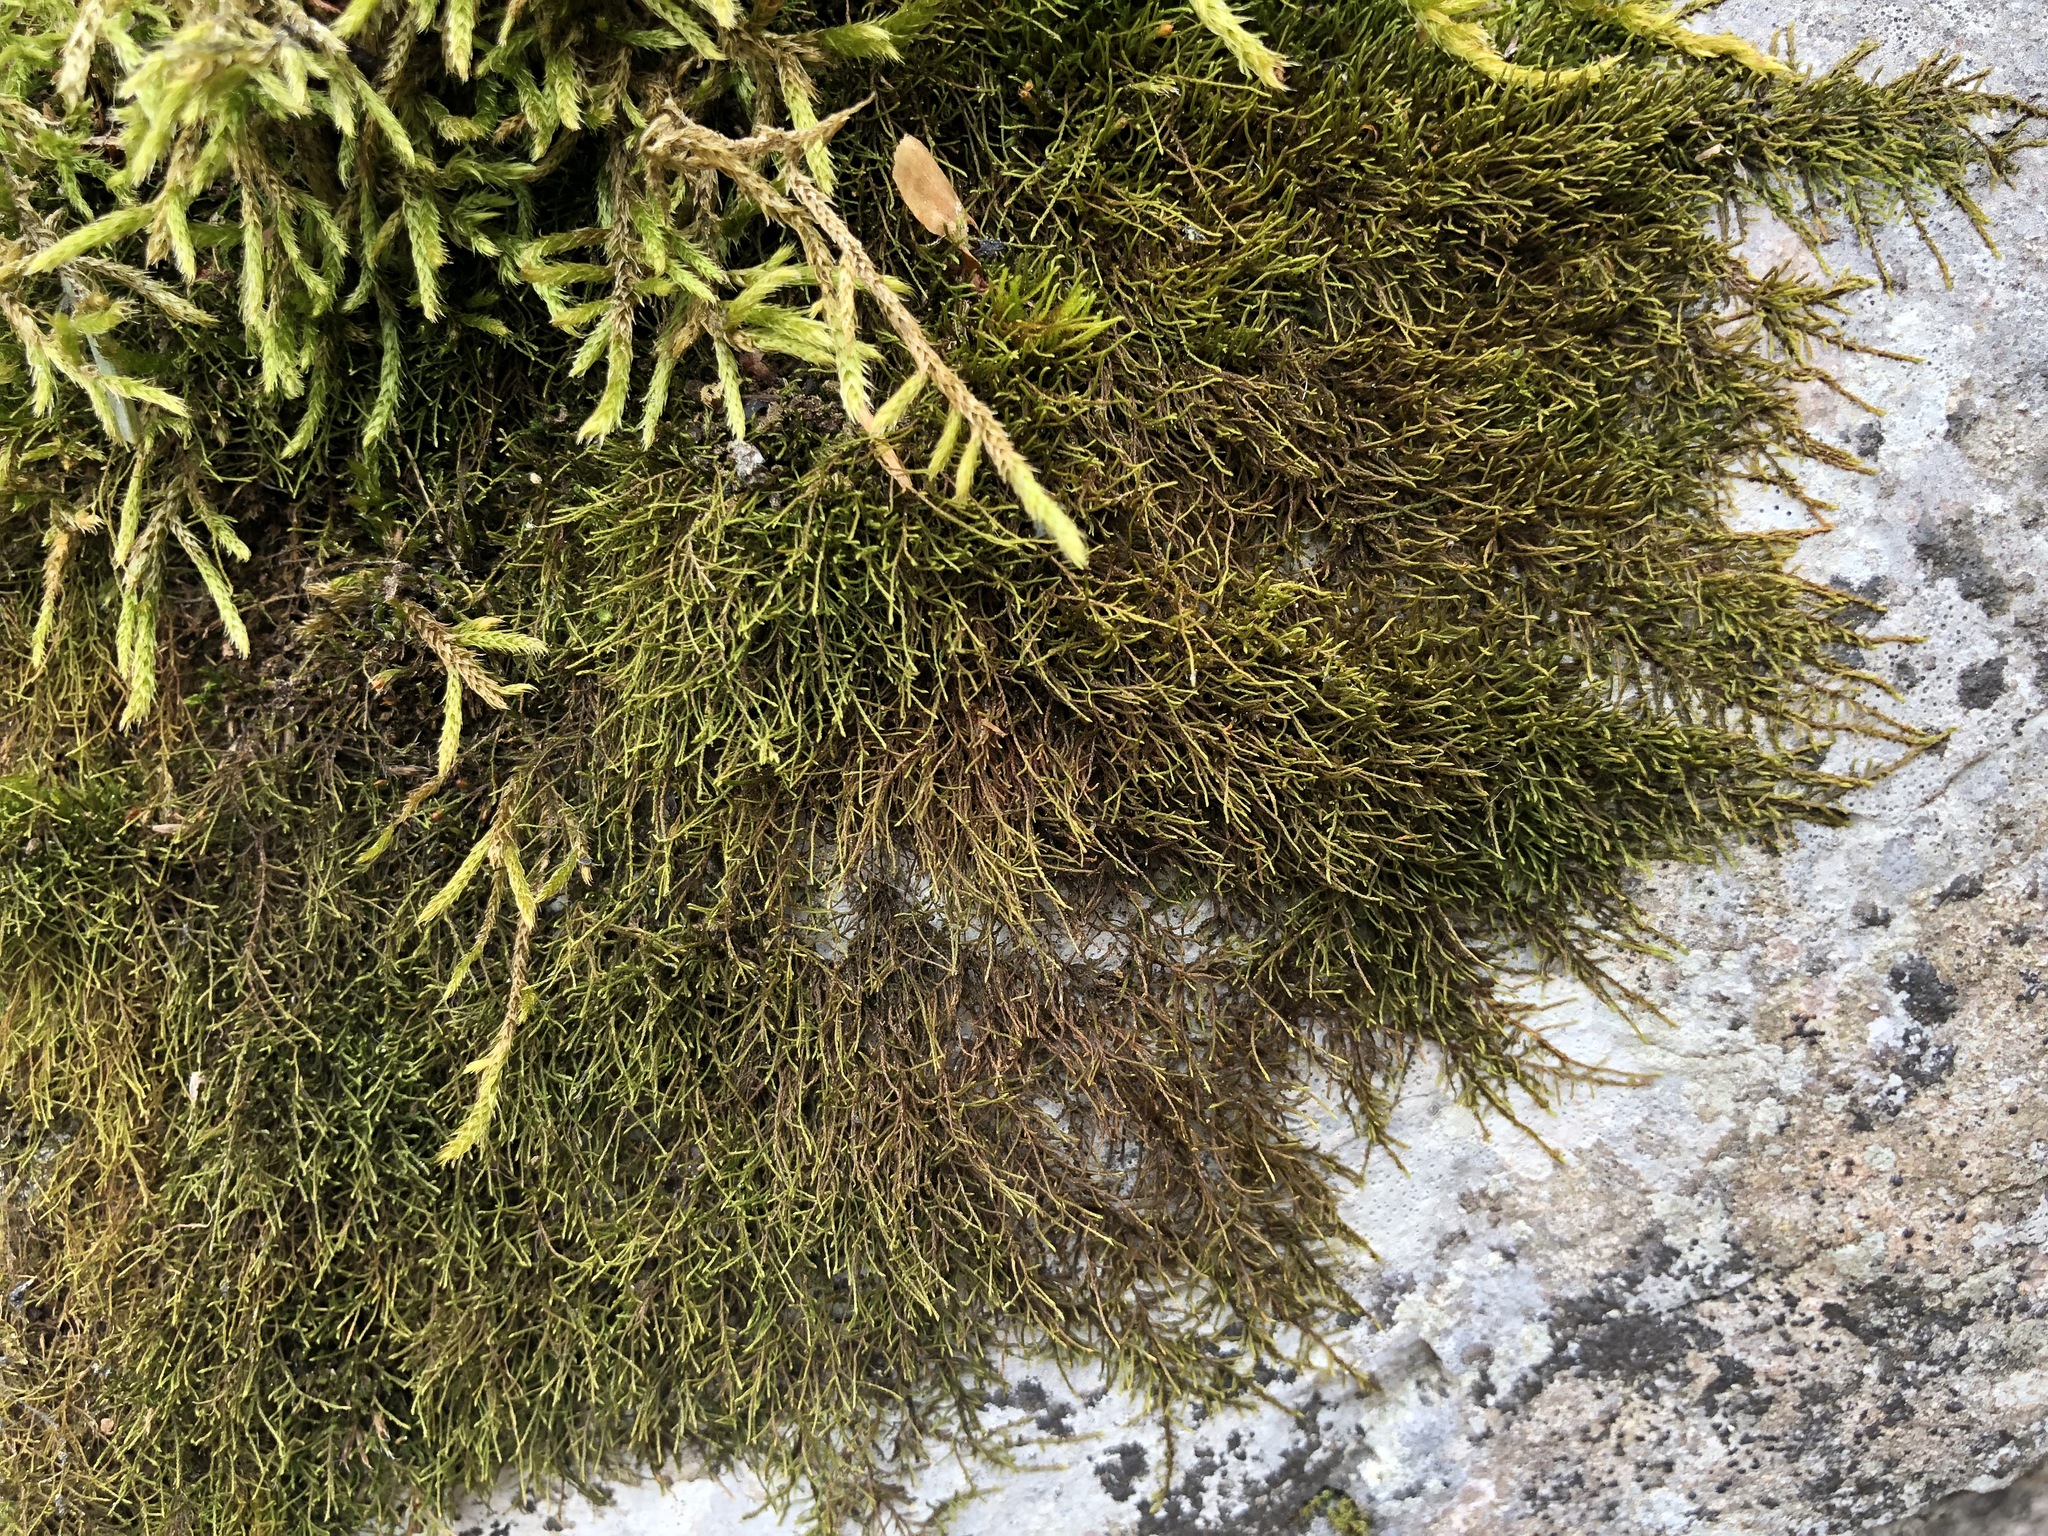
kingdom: Plantae
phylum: Bryophyta
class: Bryopsida
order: Hypnales
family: Pseudoleskeellaceae
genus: Pseudoleskeella
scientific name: Pseudoleskeella catenulata
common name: Chained leskea
